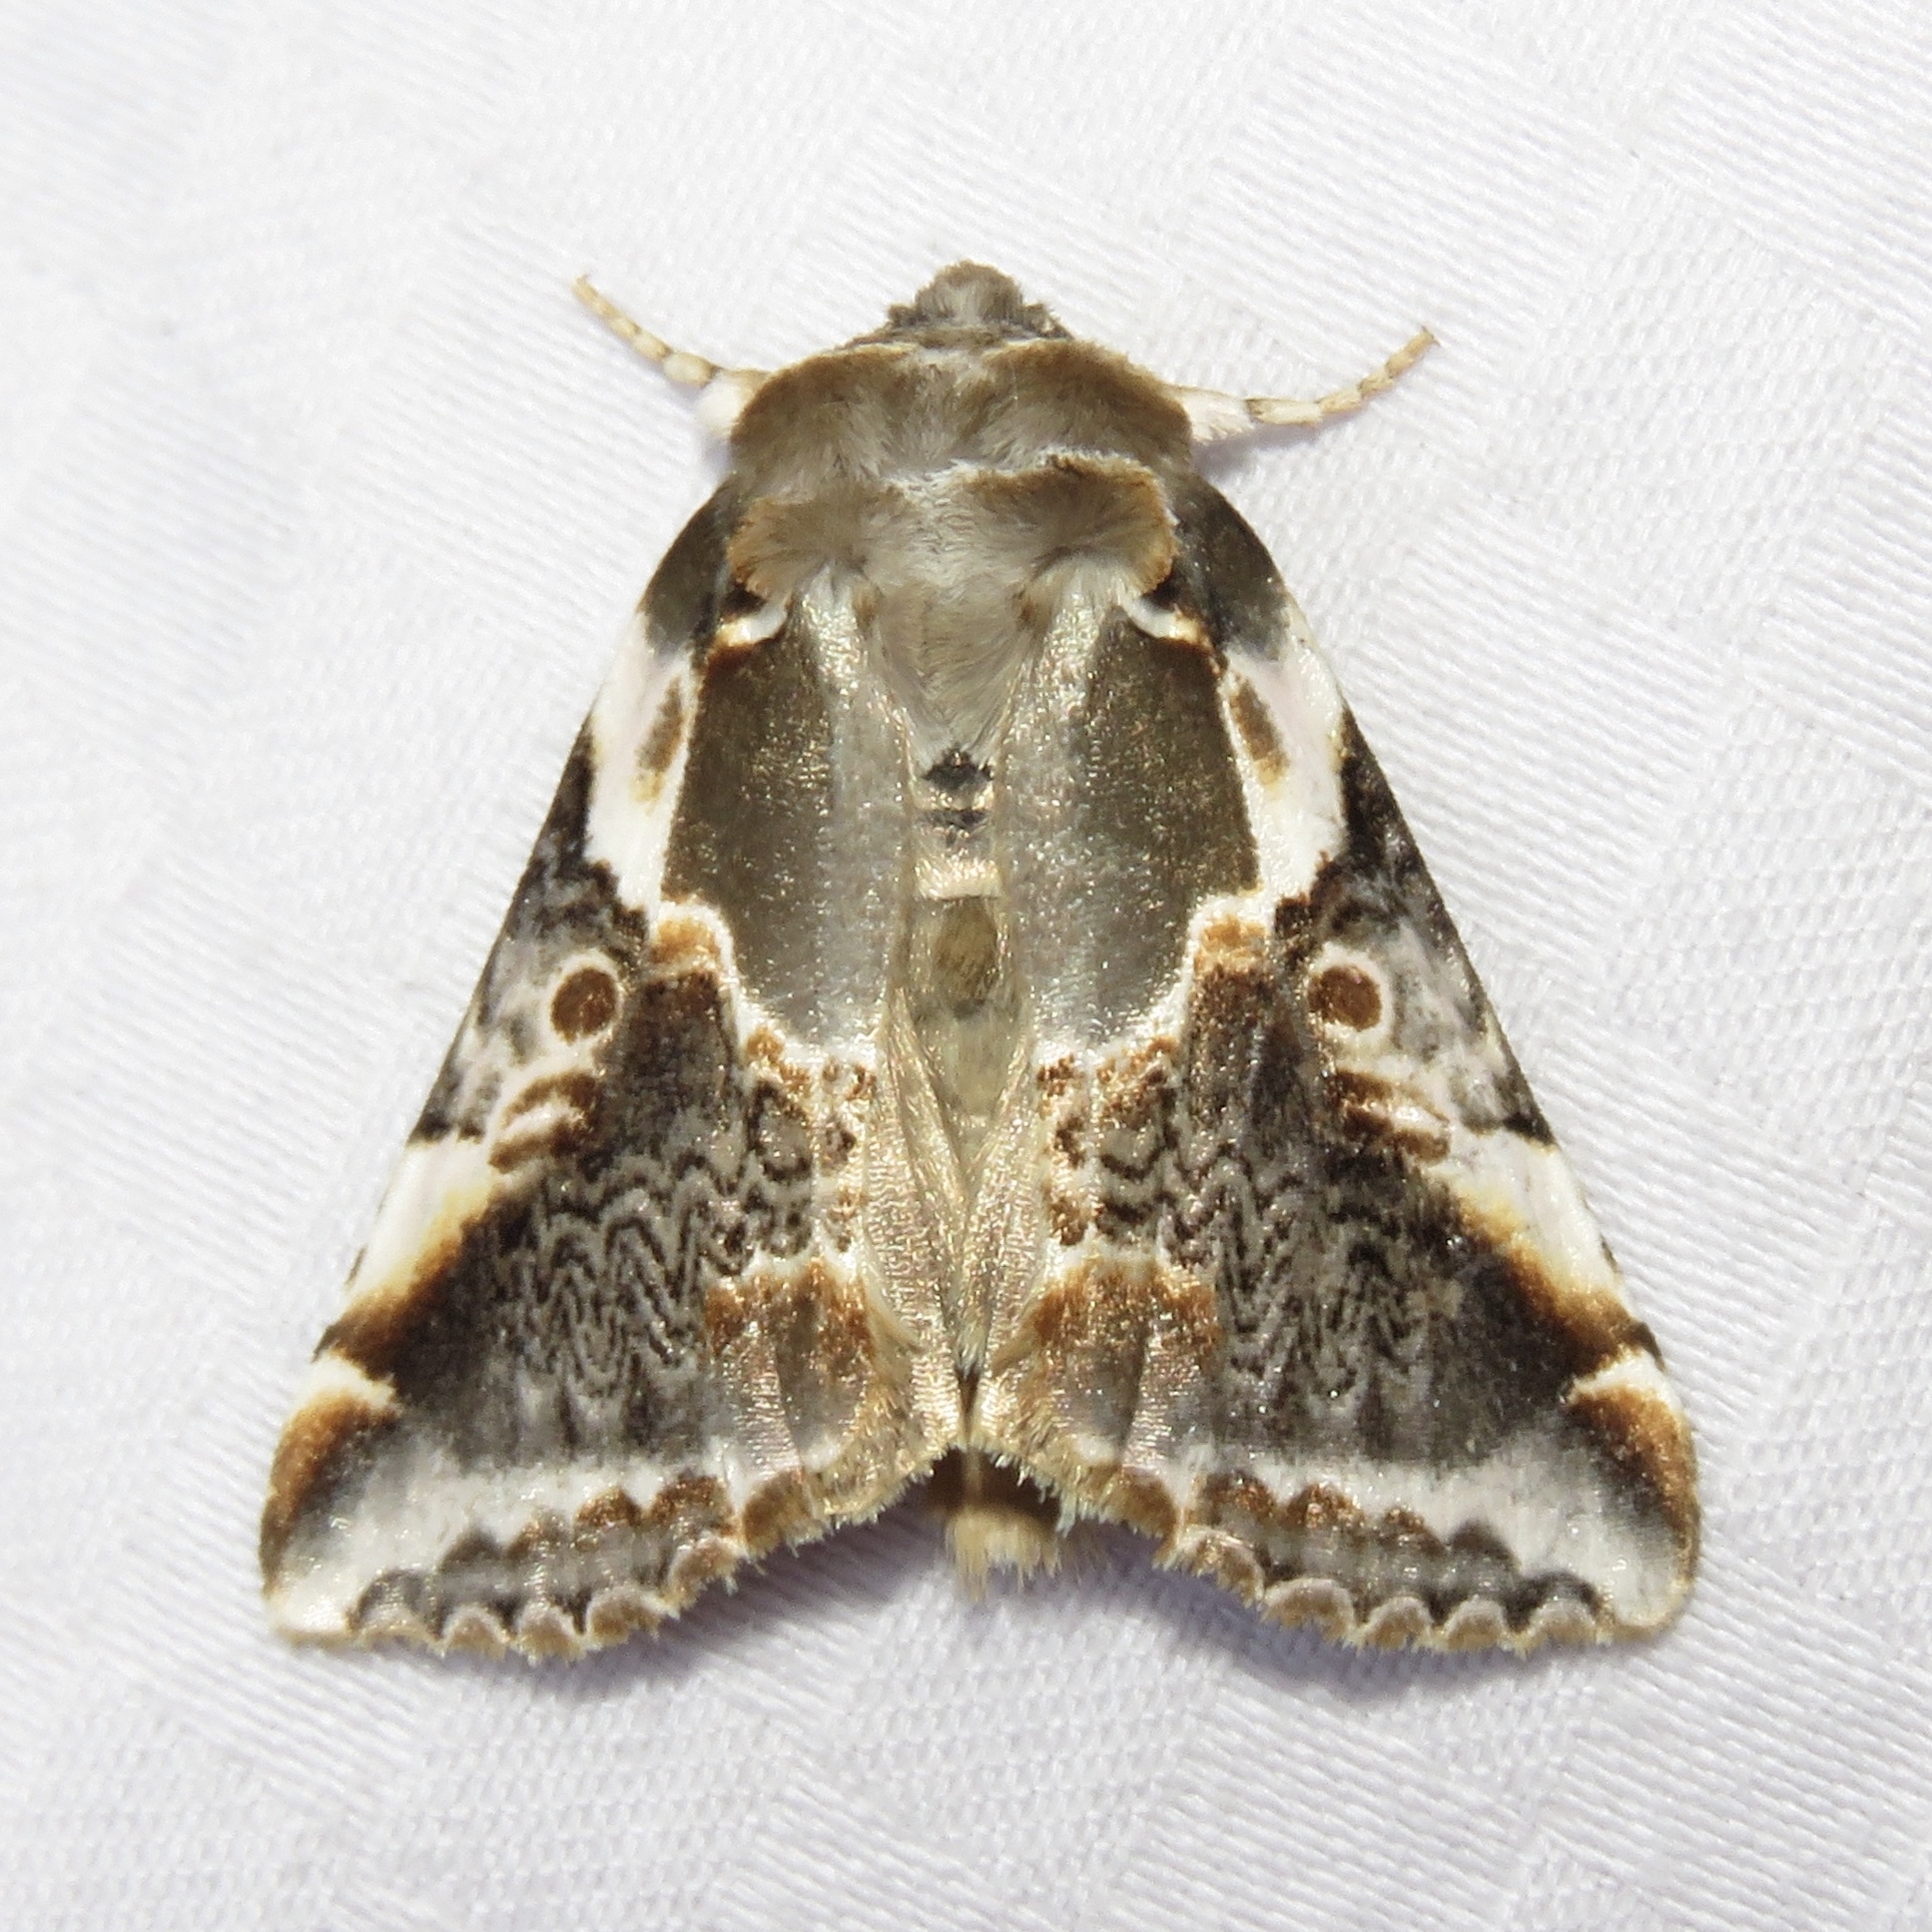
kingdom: Animalia
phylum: Arthropoda
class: Insecta
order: Lepidoptera
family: Drepanidae
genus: Habrosyne
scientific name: Habrosyne gloriosa
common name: Glorious habrosyne moth
